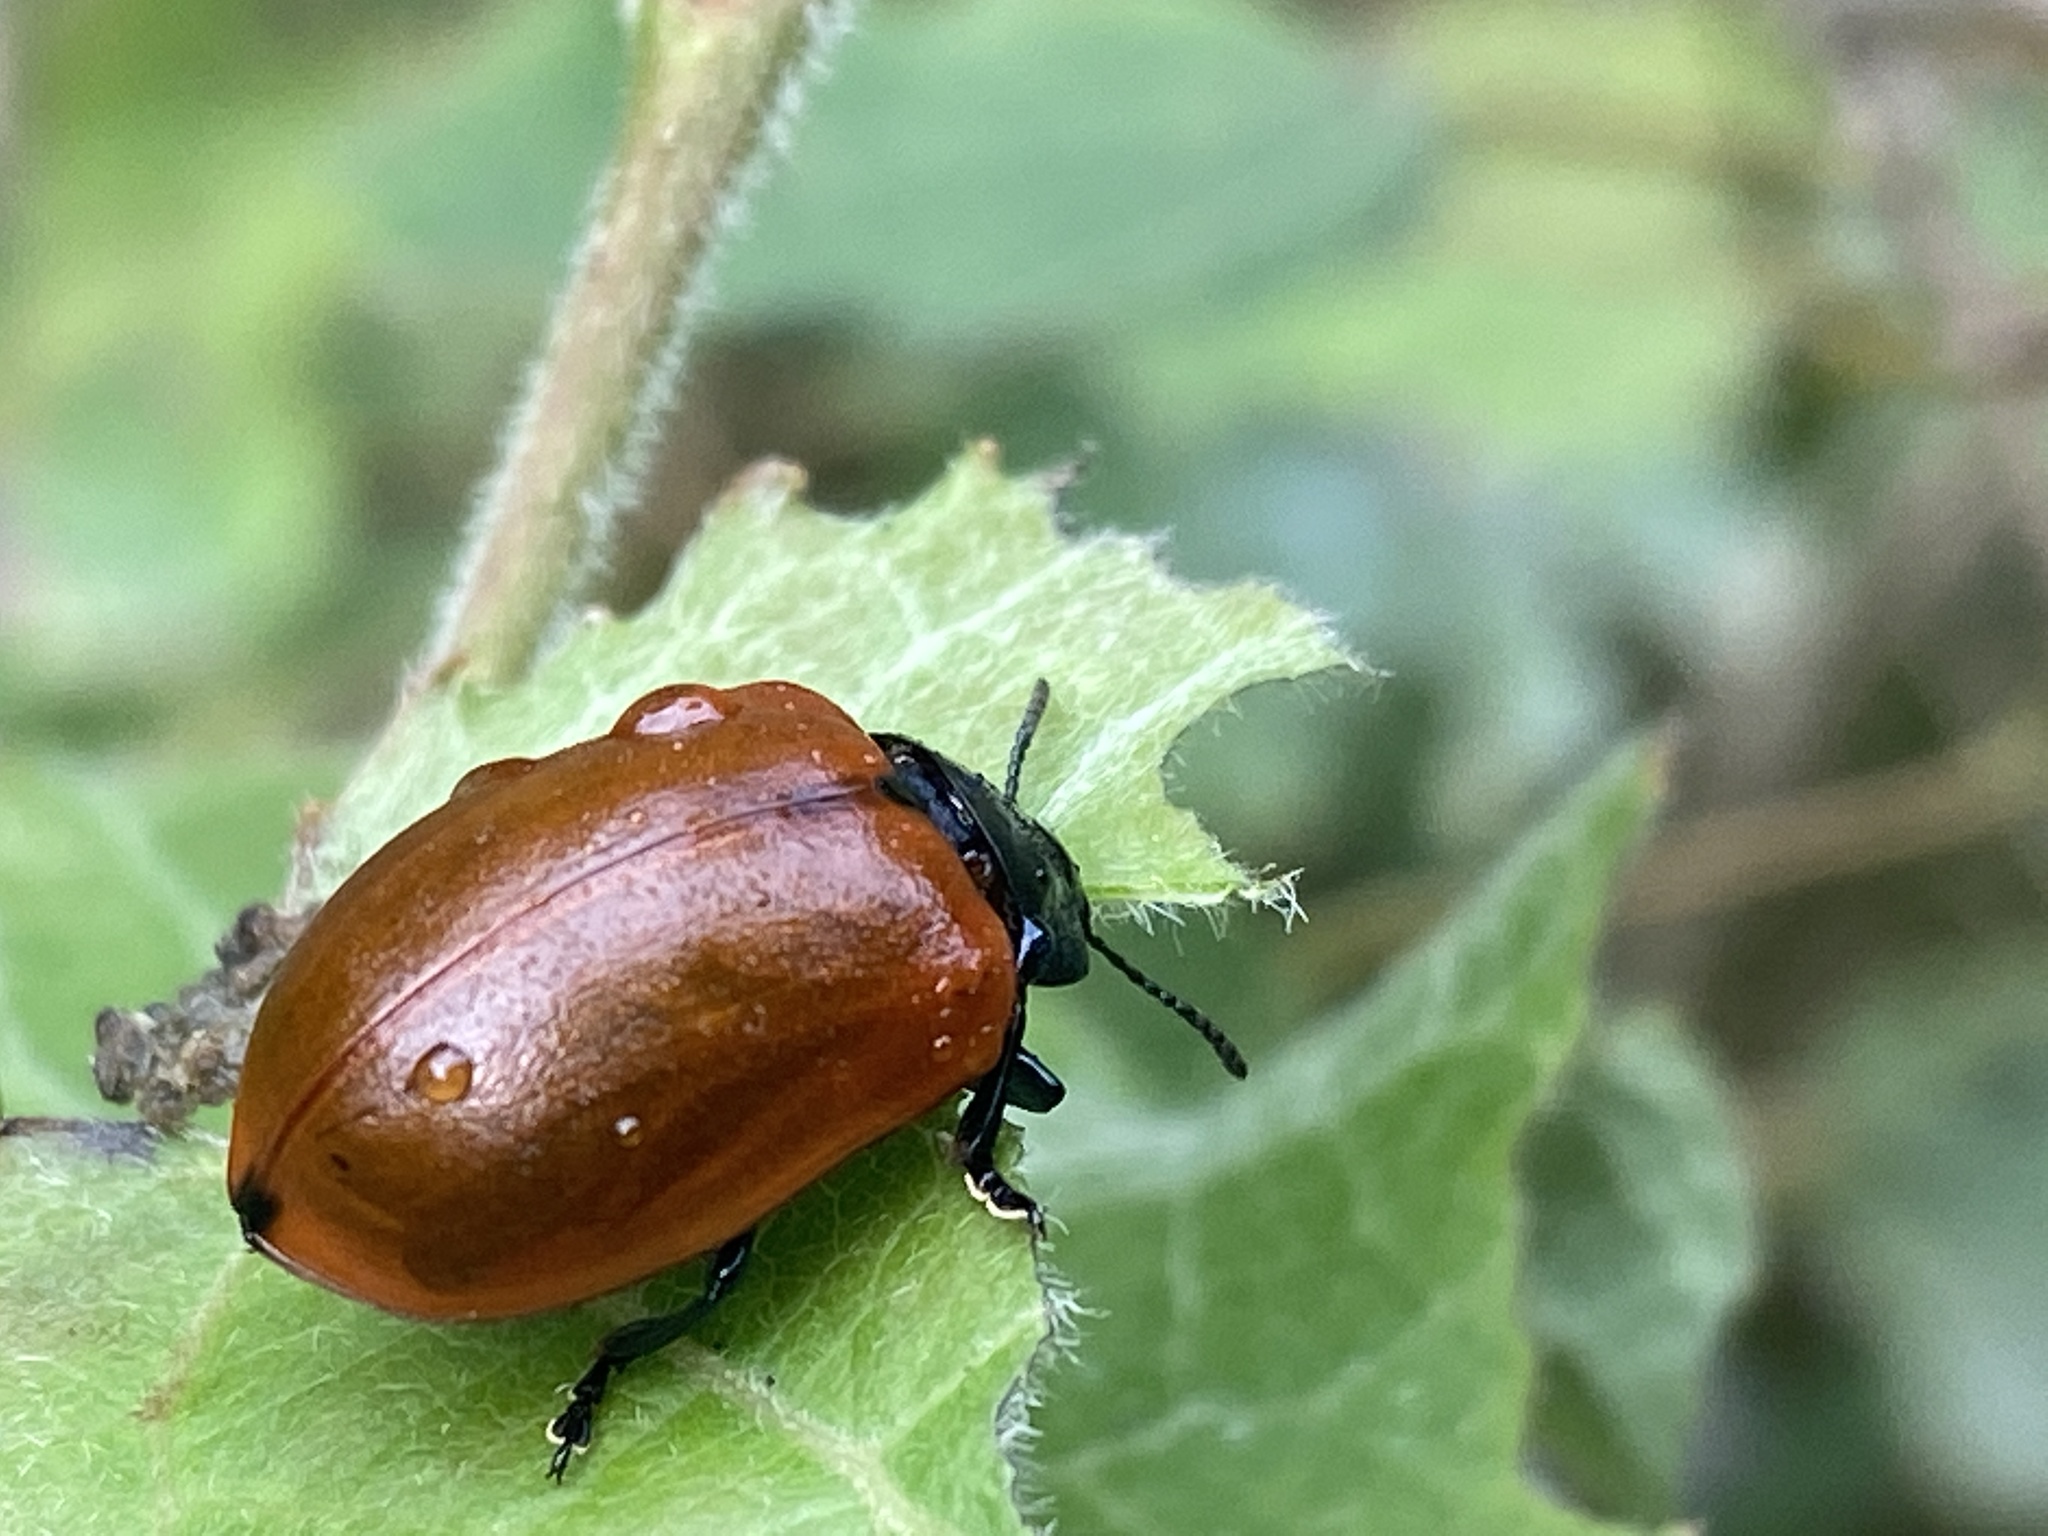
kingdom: Animalia
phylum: Arthropoda
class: Insecta
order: Coleoptera
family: Chrysomelidae
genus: Chrysomela
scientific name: Chrysomela populi
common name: Red poplar leaf beetle
